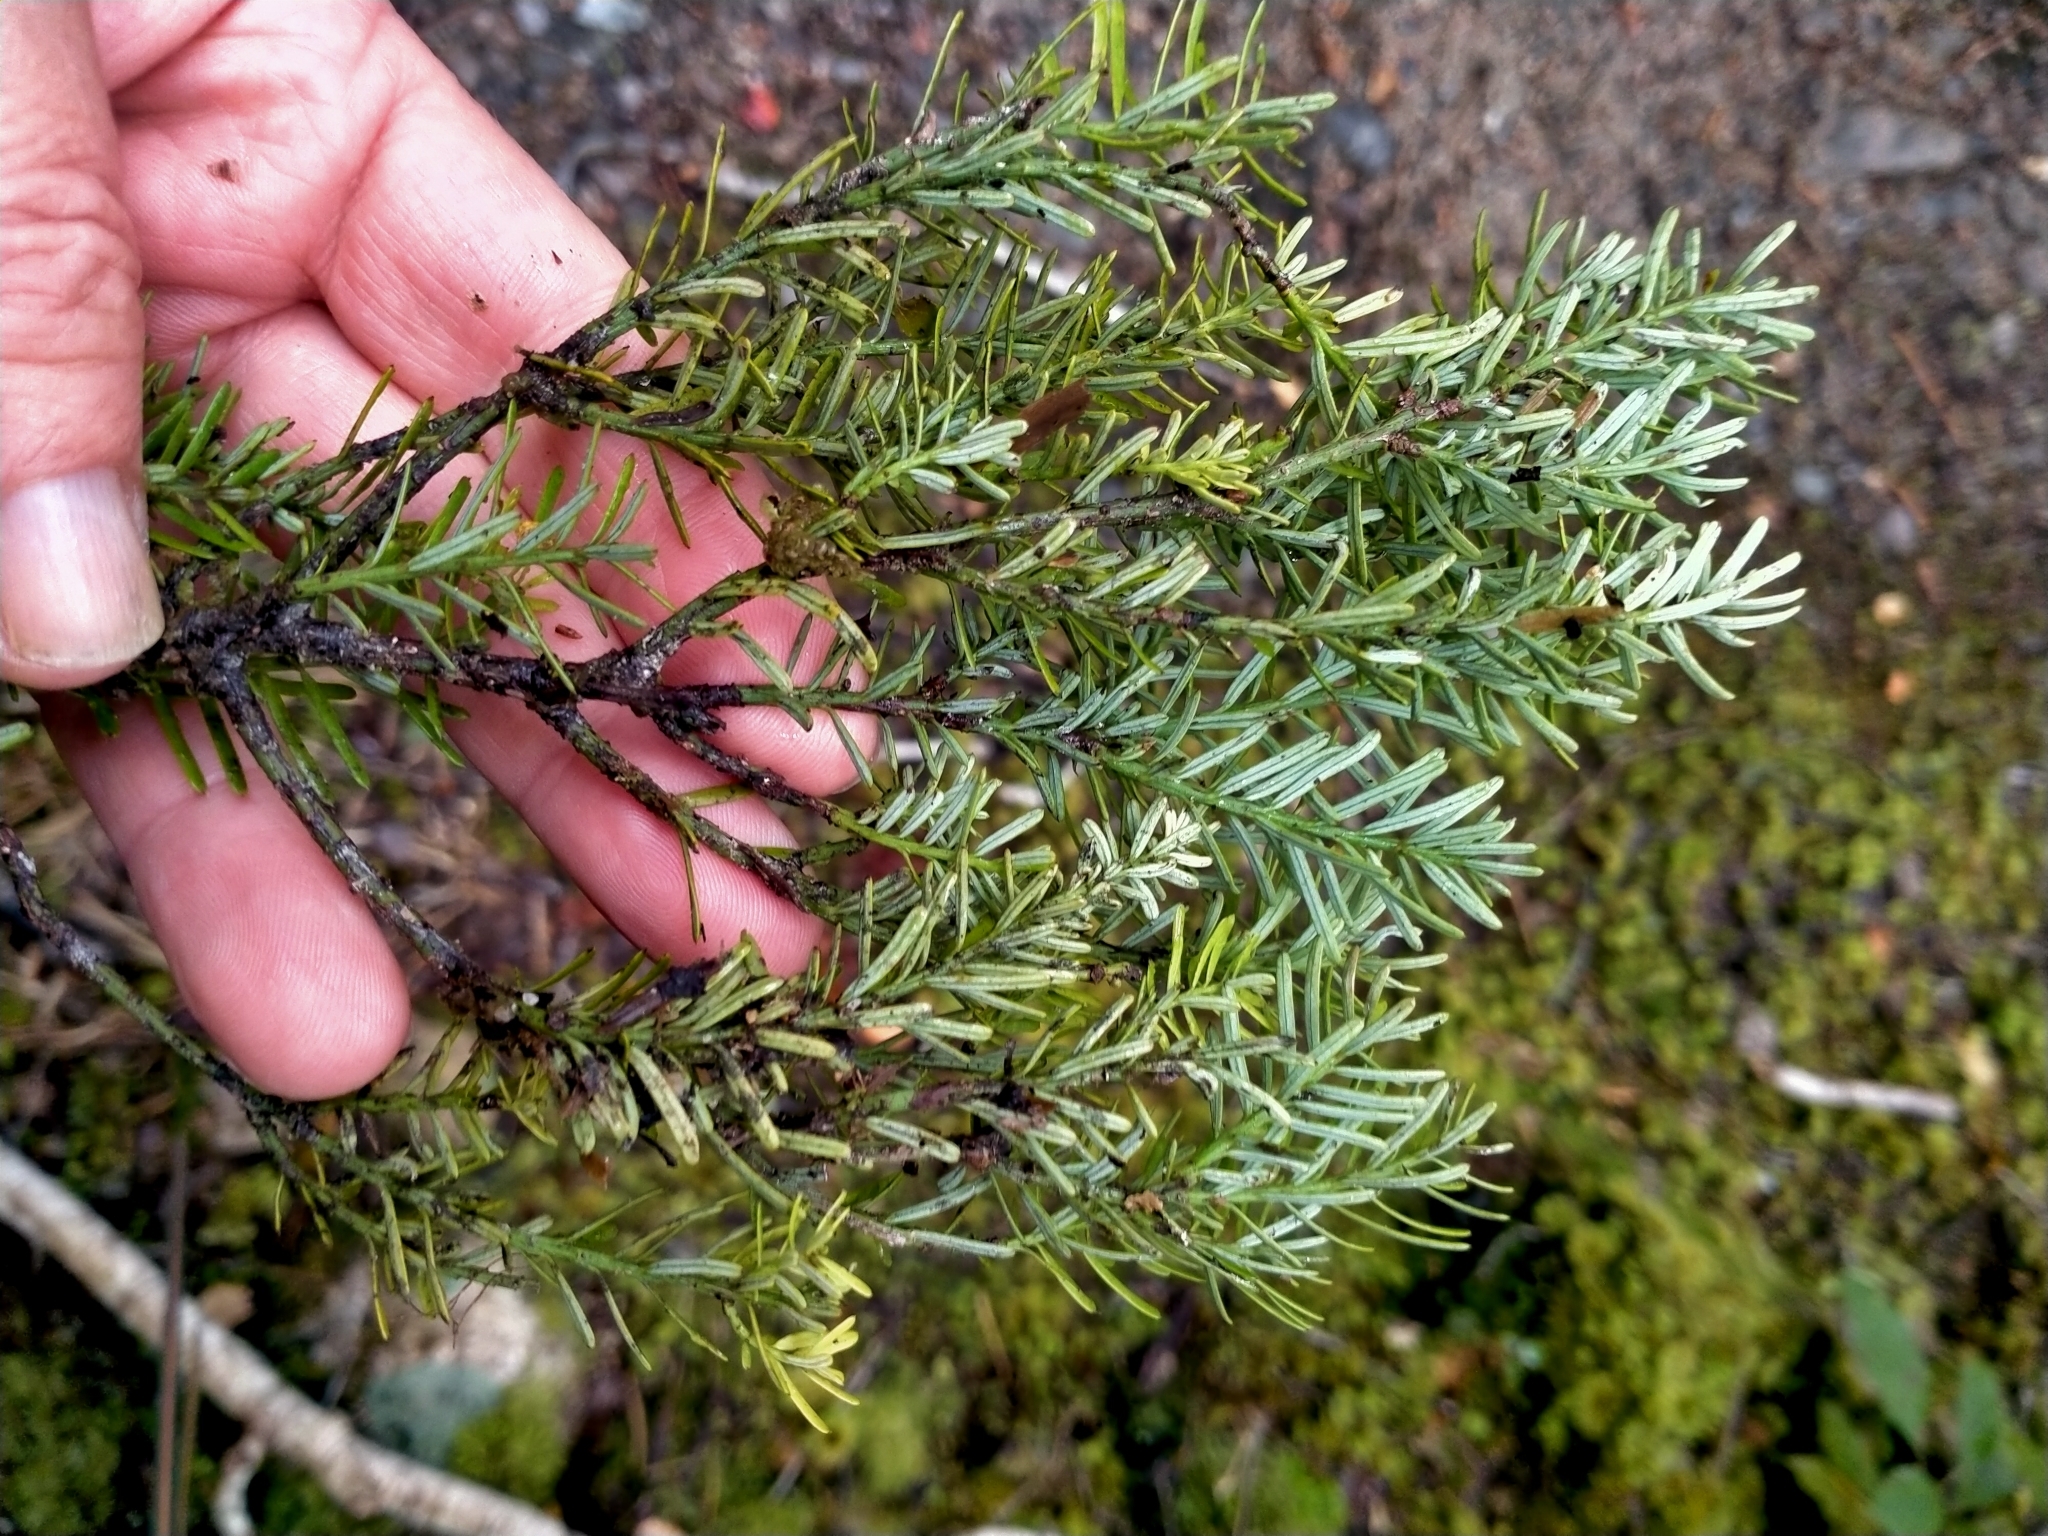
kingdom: Plantae
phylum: Tracheophyta
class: Pinopsida
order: Pinales
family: Podocarpaceae
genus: Prumnopitys
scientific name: Prumnopitys taxifolia
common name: Matai
